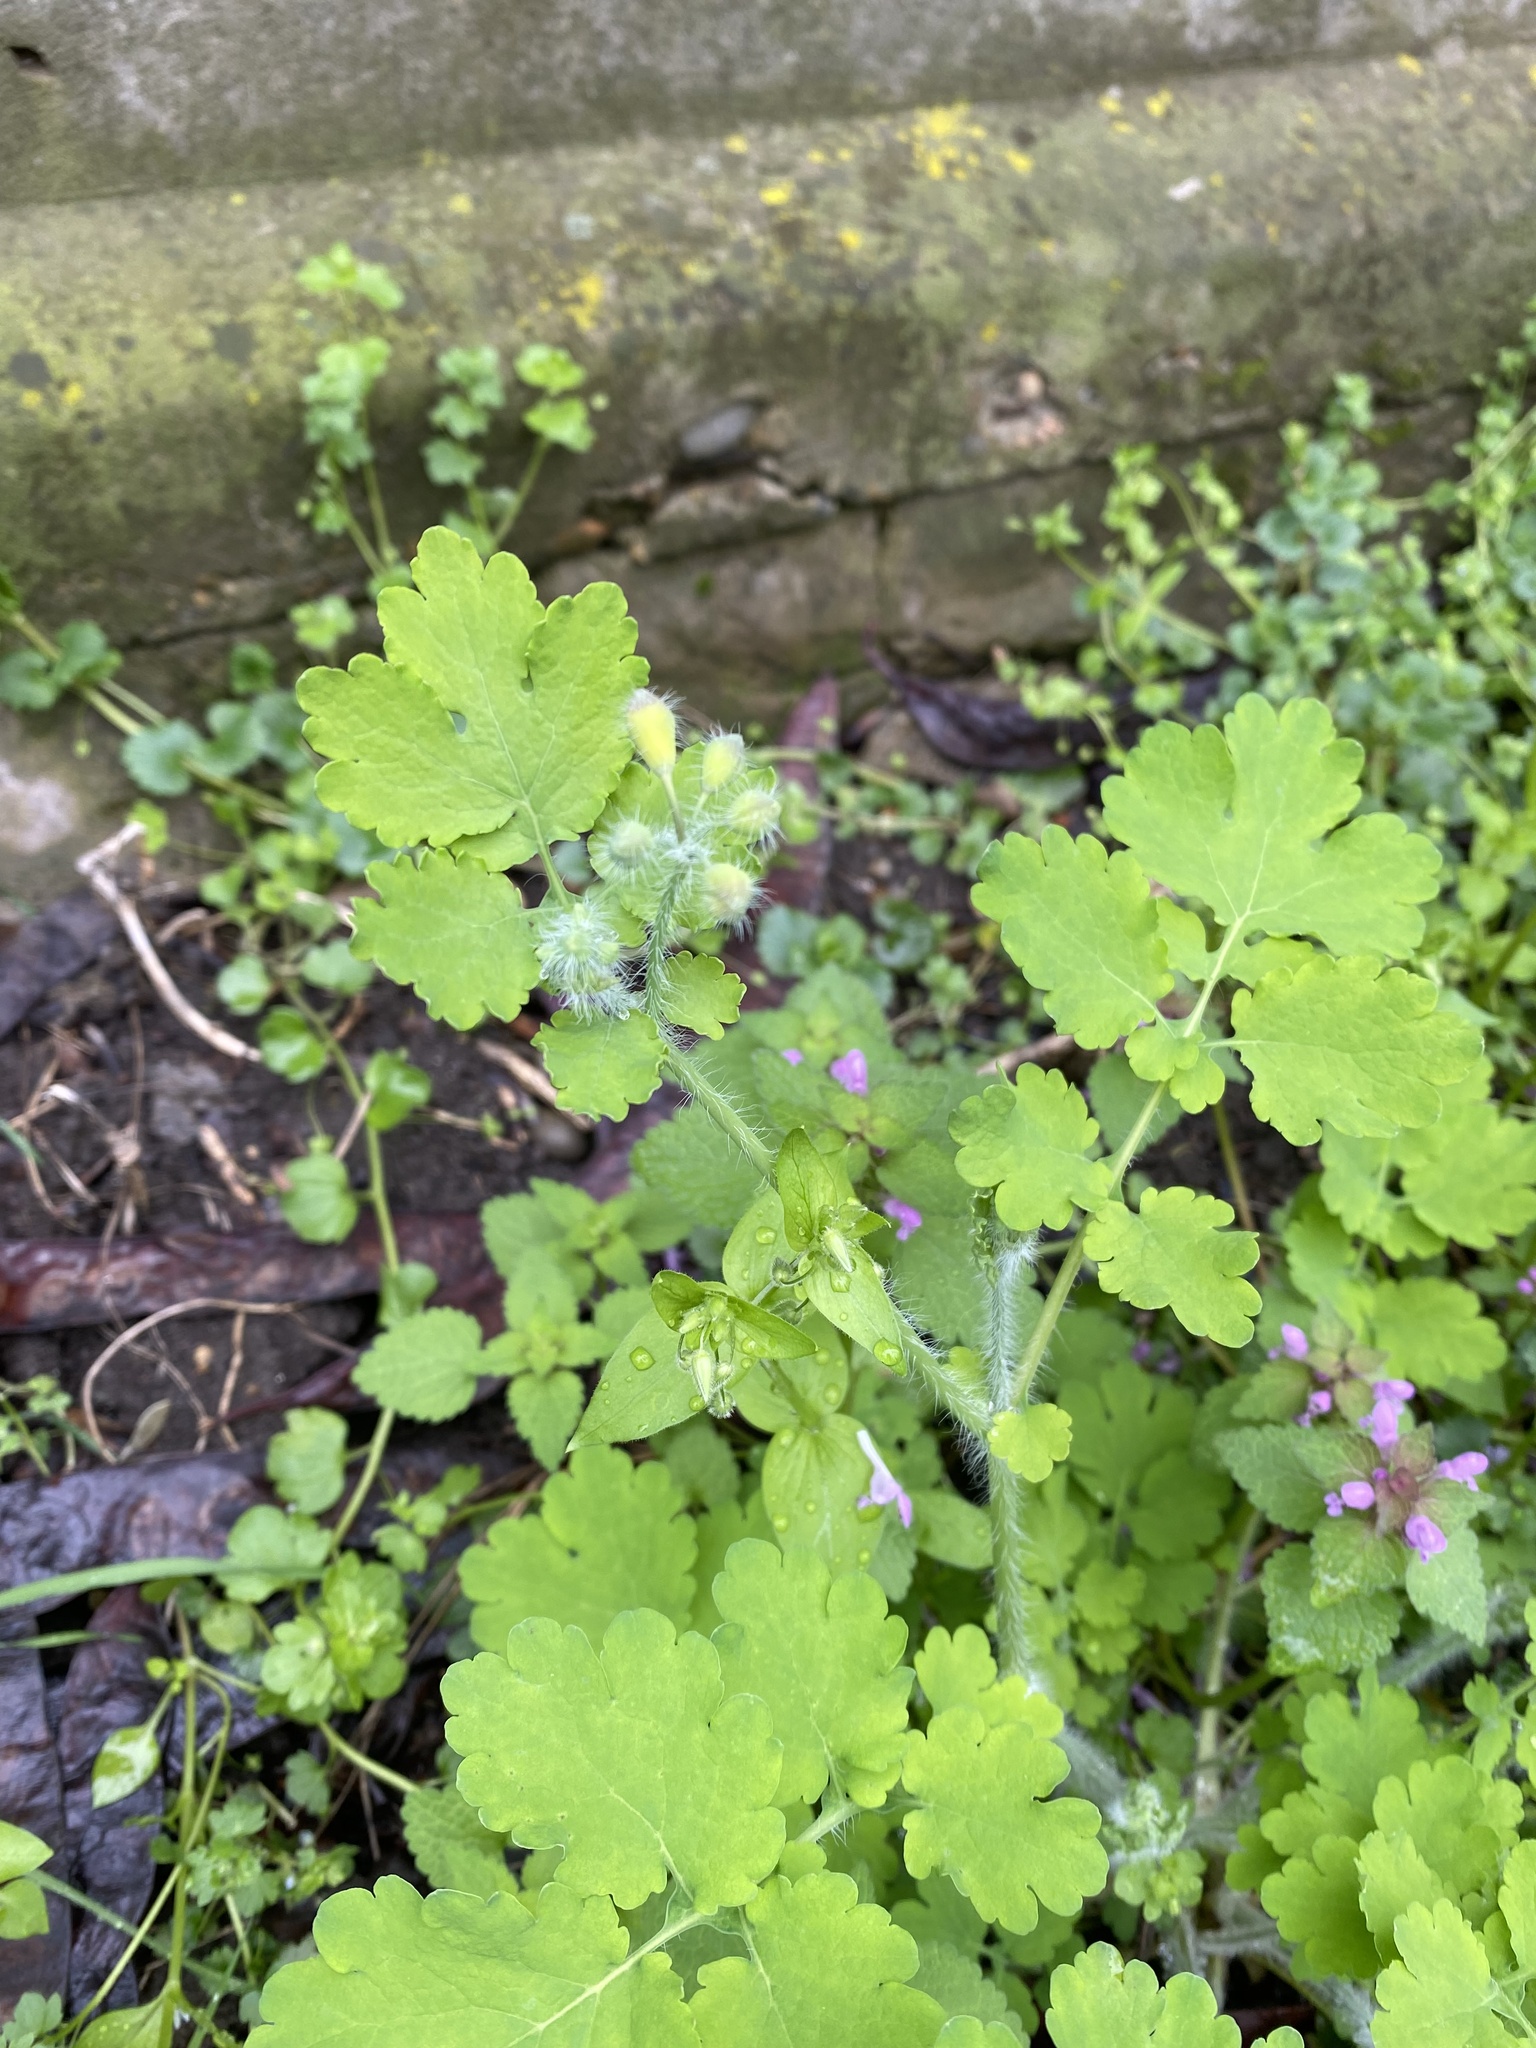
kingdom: Plantae
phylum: Tracheophyta
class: Magnoliopsida
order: Ranunculales
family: Papaveraceae
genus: Chelidonium
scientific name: Chelidonium majus
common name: Greater celandine
